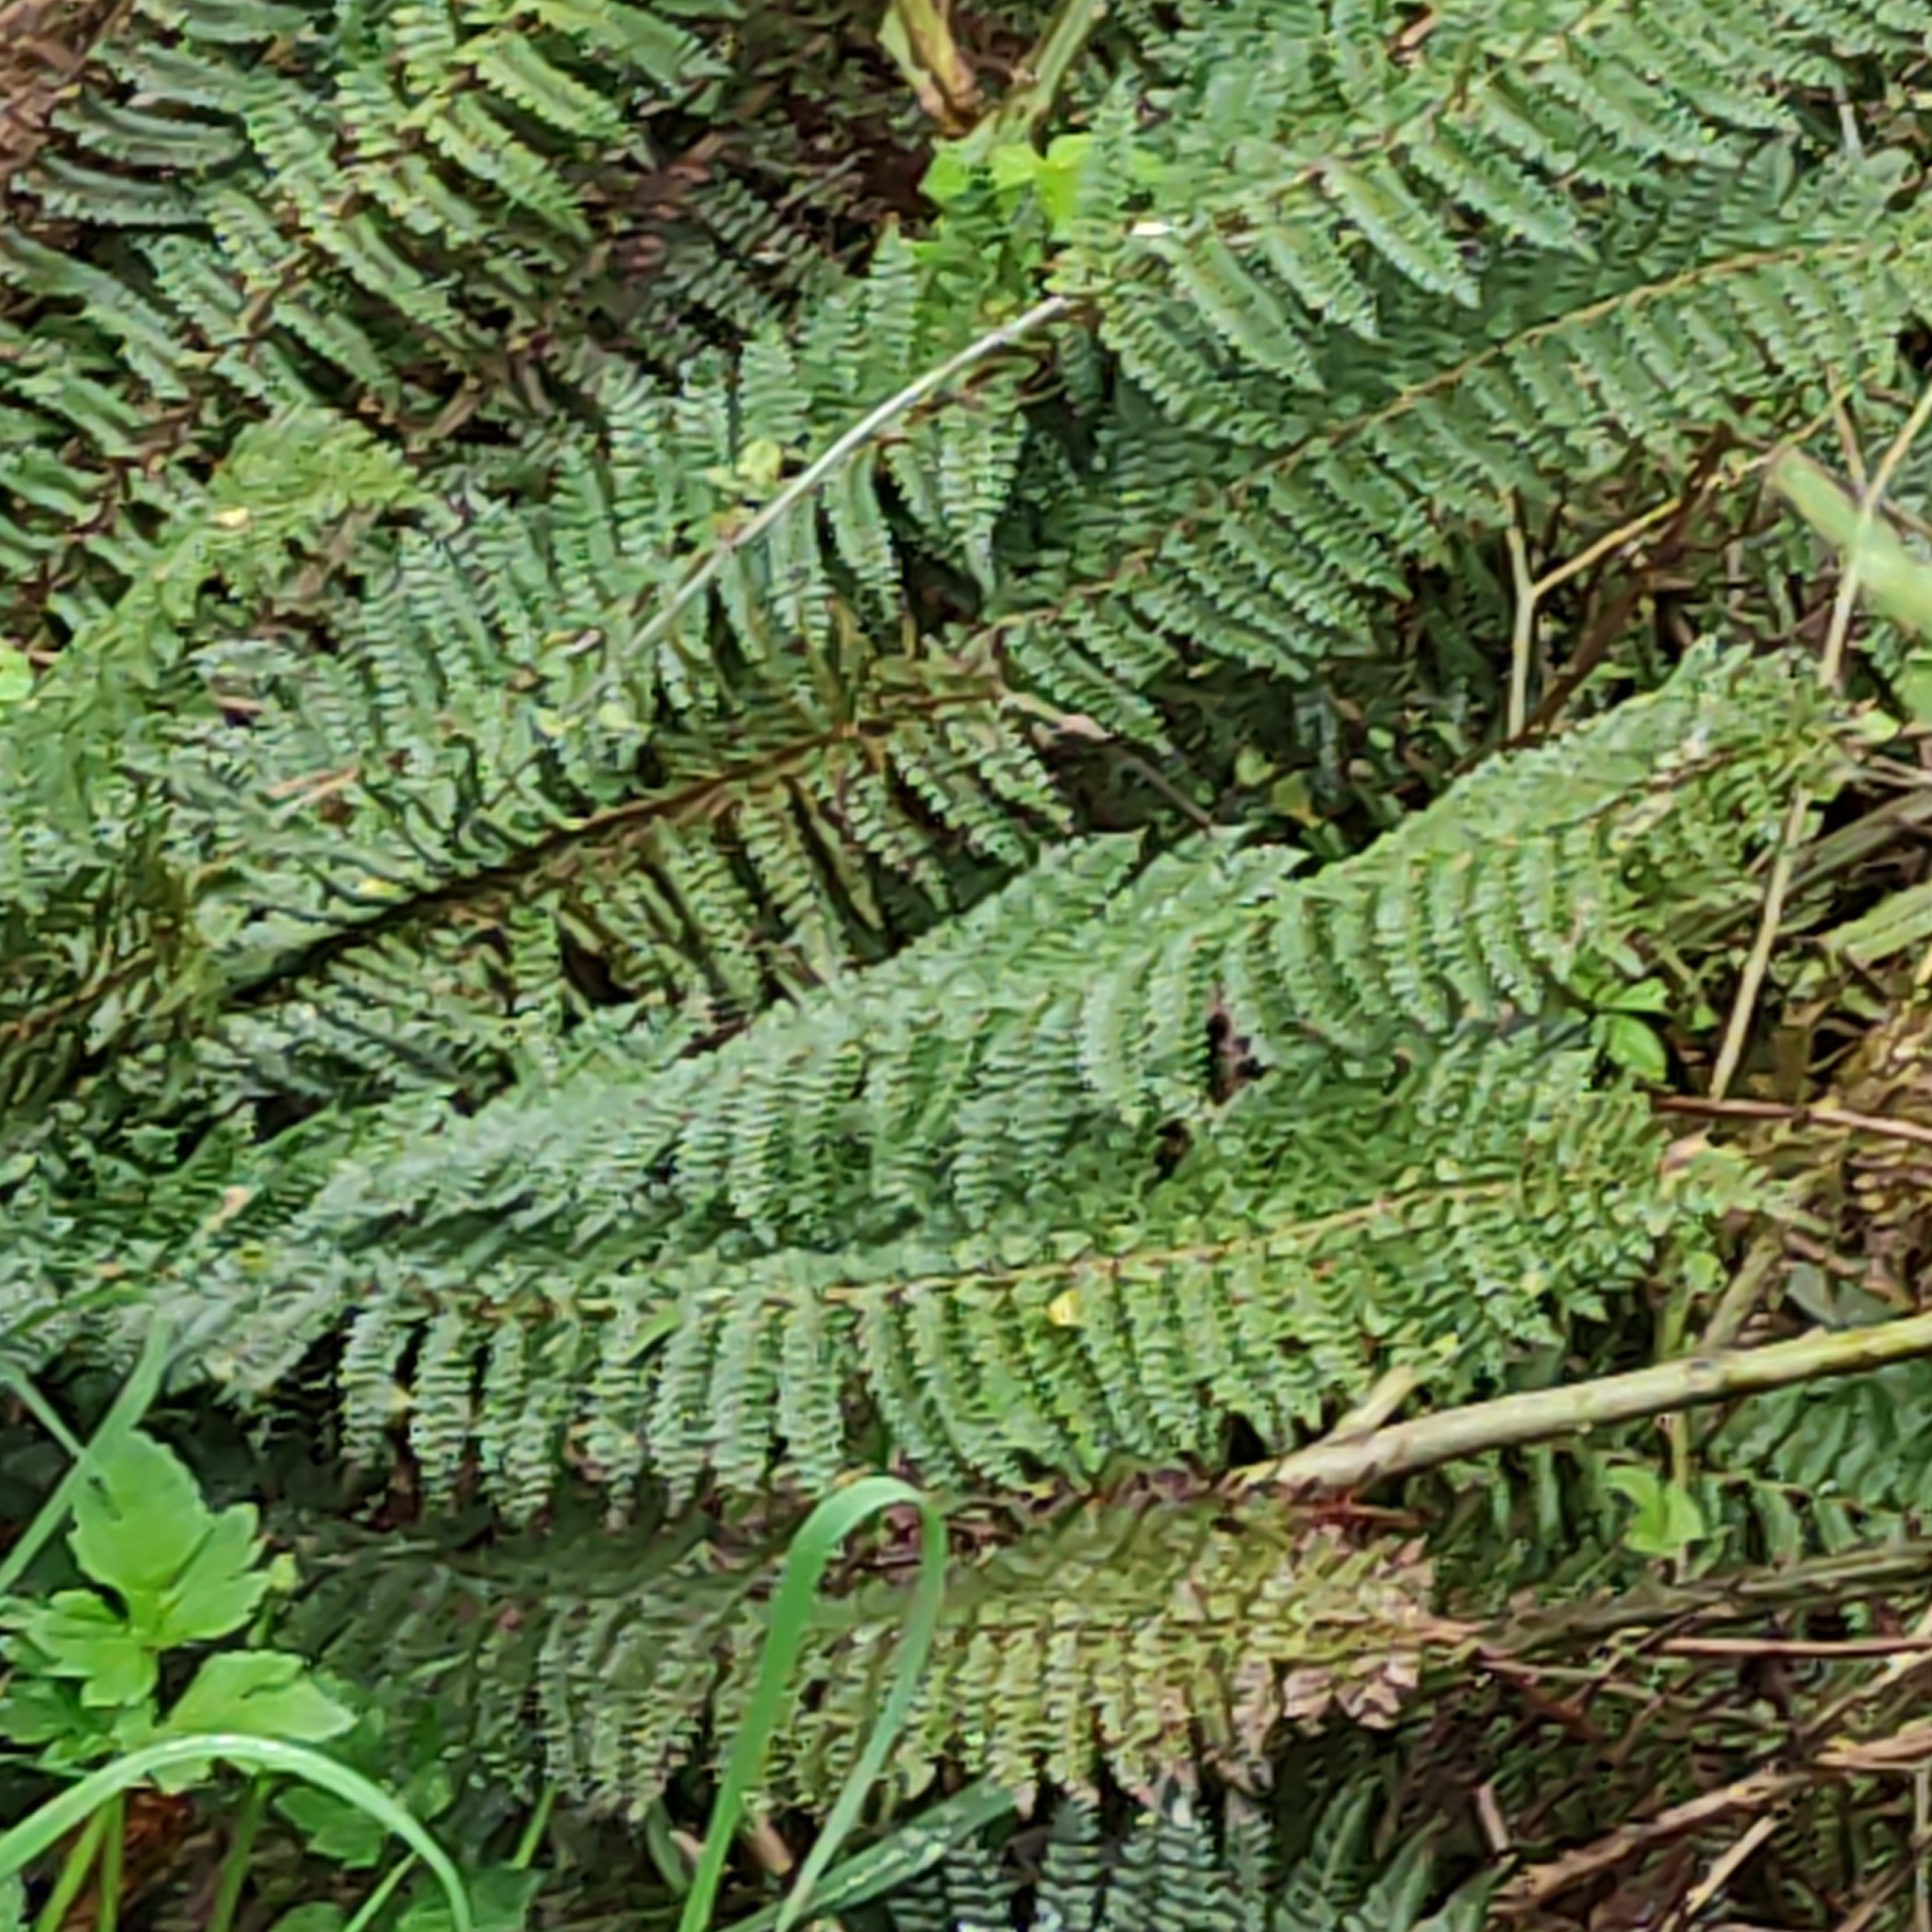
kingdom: Plantae
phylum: Tracheophyta
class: Polypodiopsida
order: Polypodiales
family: Dryopteridaceae
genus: Polystichum
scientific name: Polystichum vestitum
